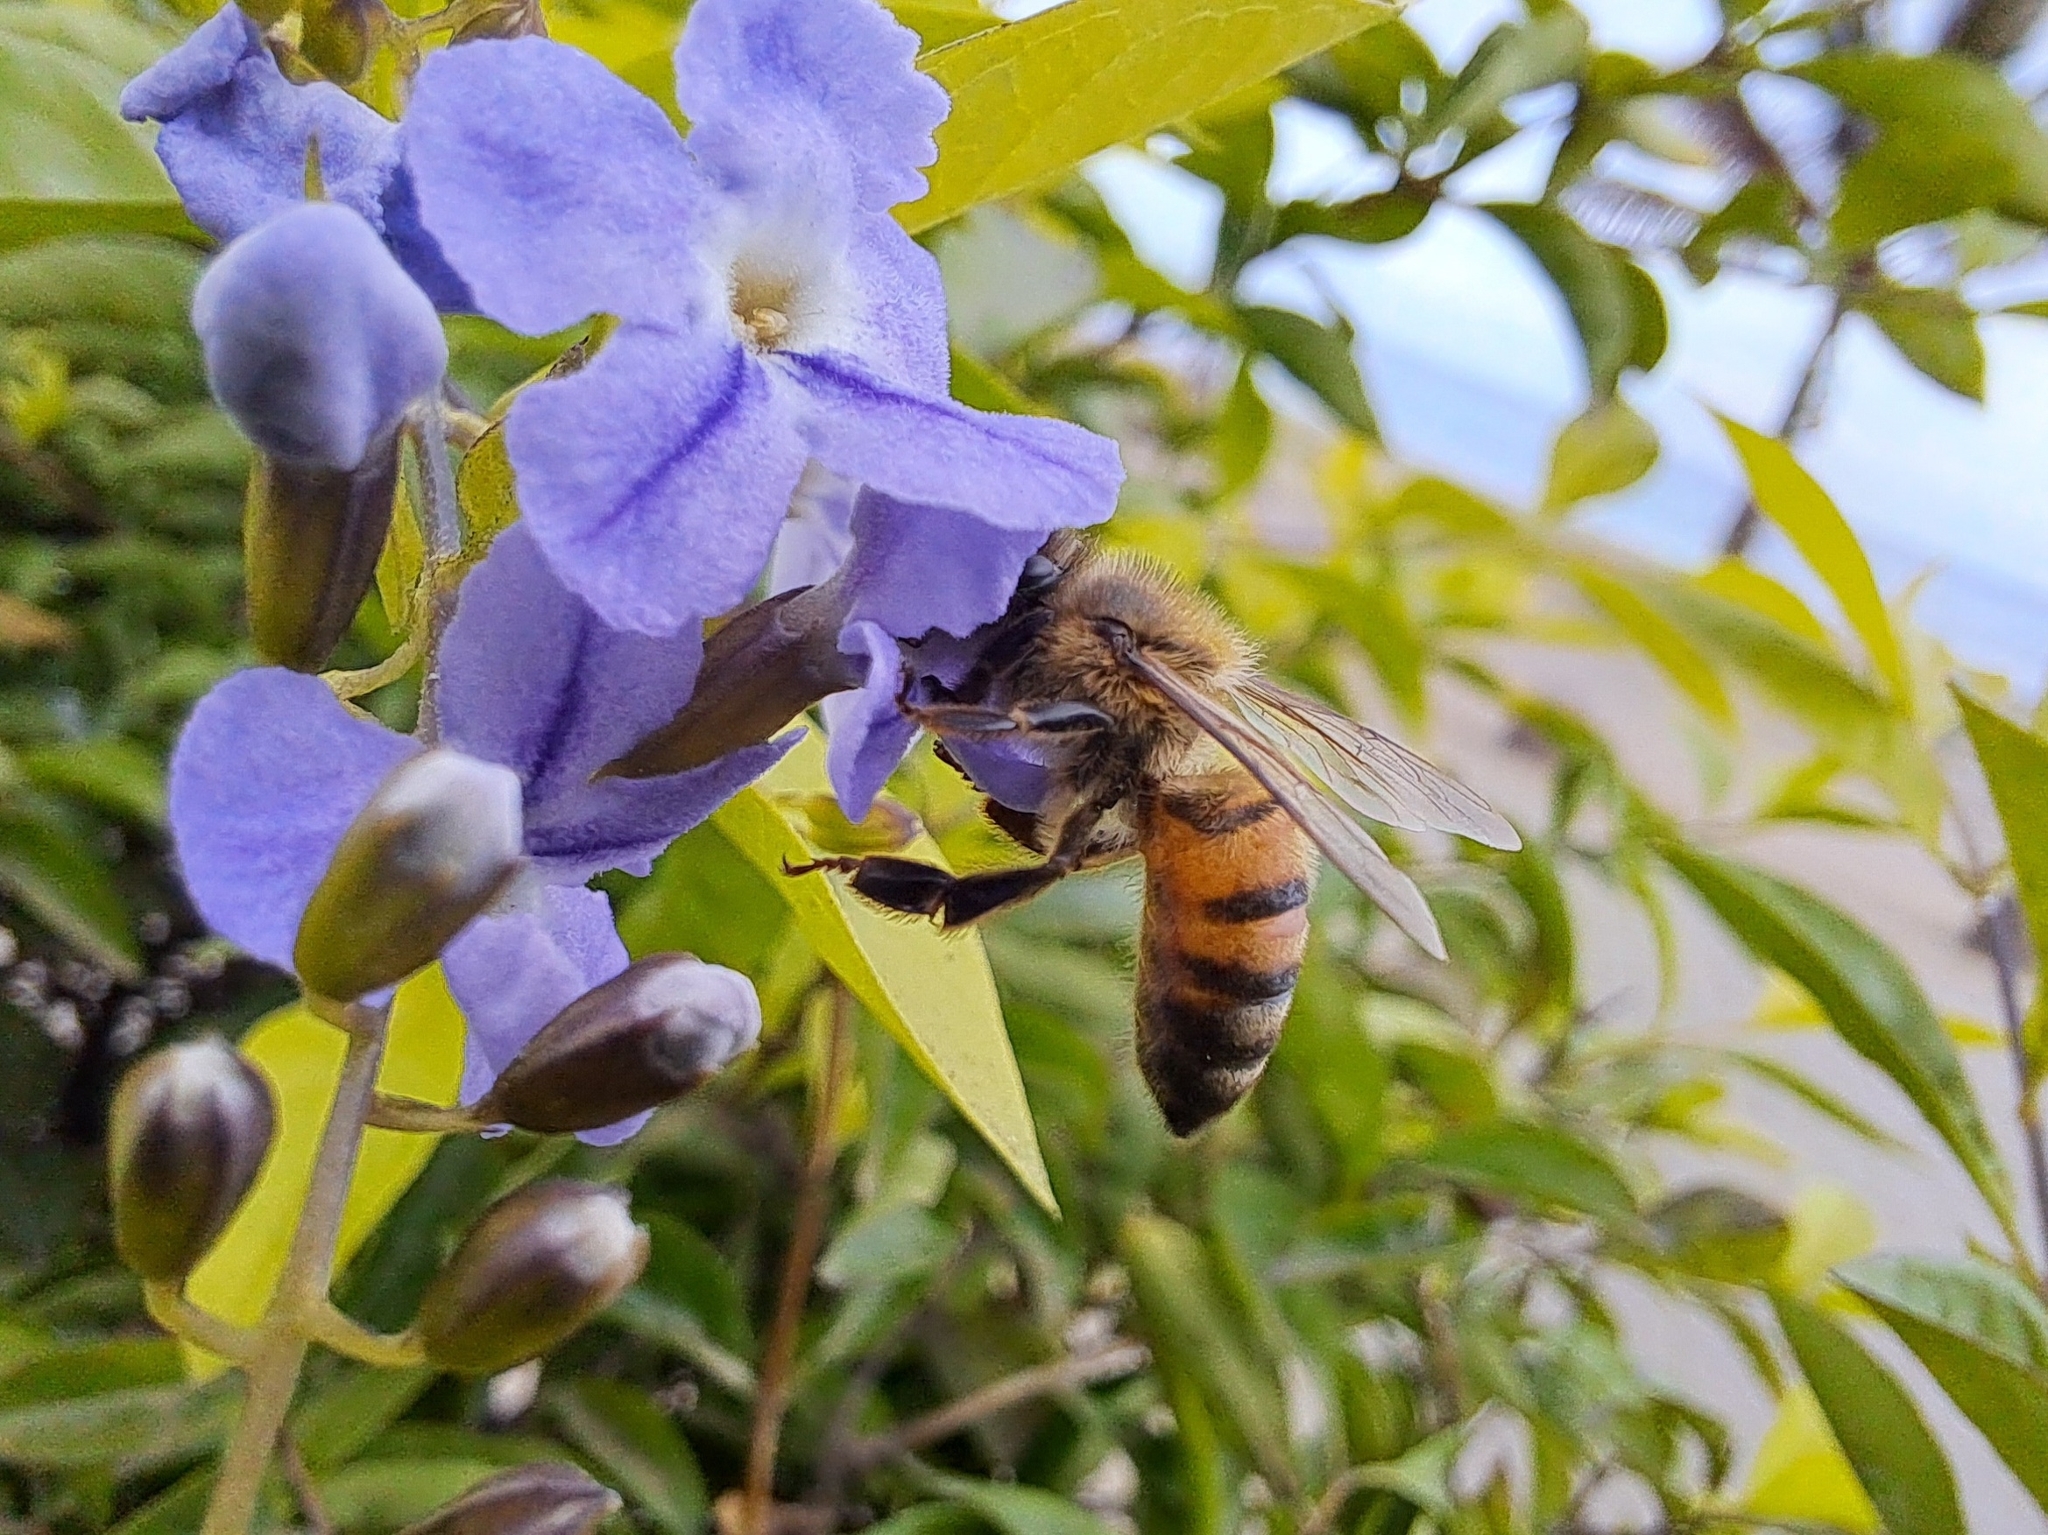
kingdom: Animalia
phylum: Arthropoda
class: Insecta
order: Hymenoptera
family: Apidae
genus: Apis
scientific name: Apis mellifera
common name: Honey bee
